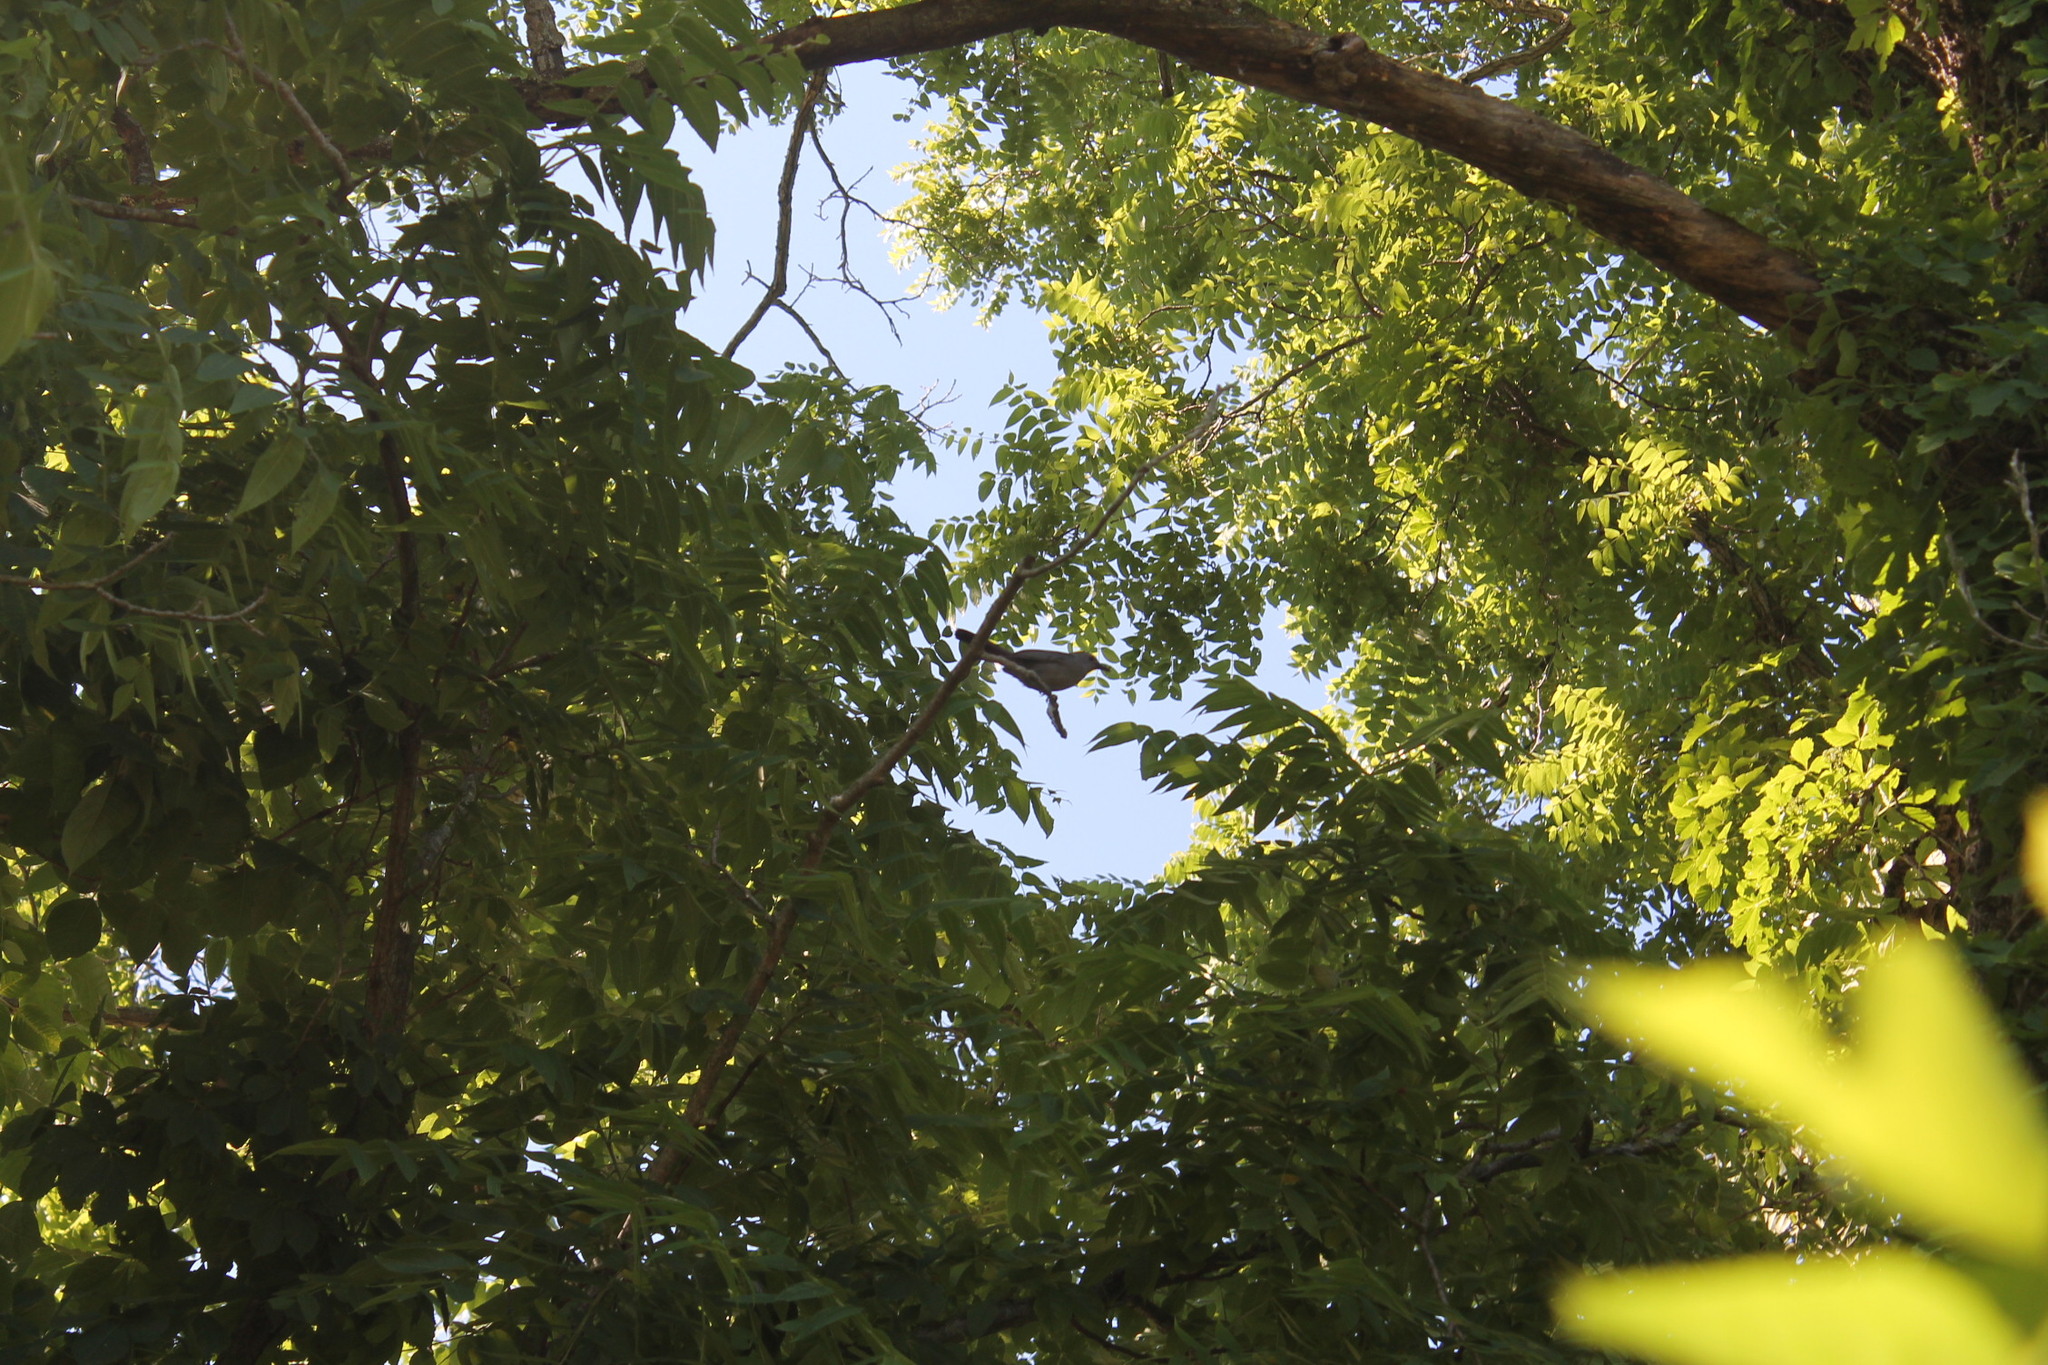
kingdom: Animalia
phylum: Chordata
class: Aves
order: Passeriformes
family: Mimidae
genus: Dumetella
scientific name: Dumetella carolinensis
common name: Gray catbird
